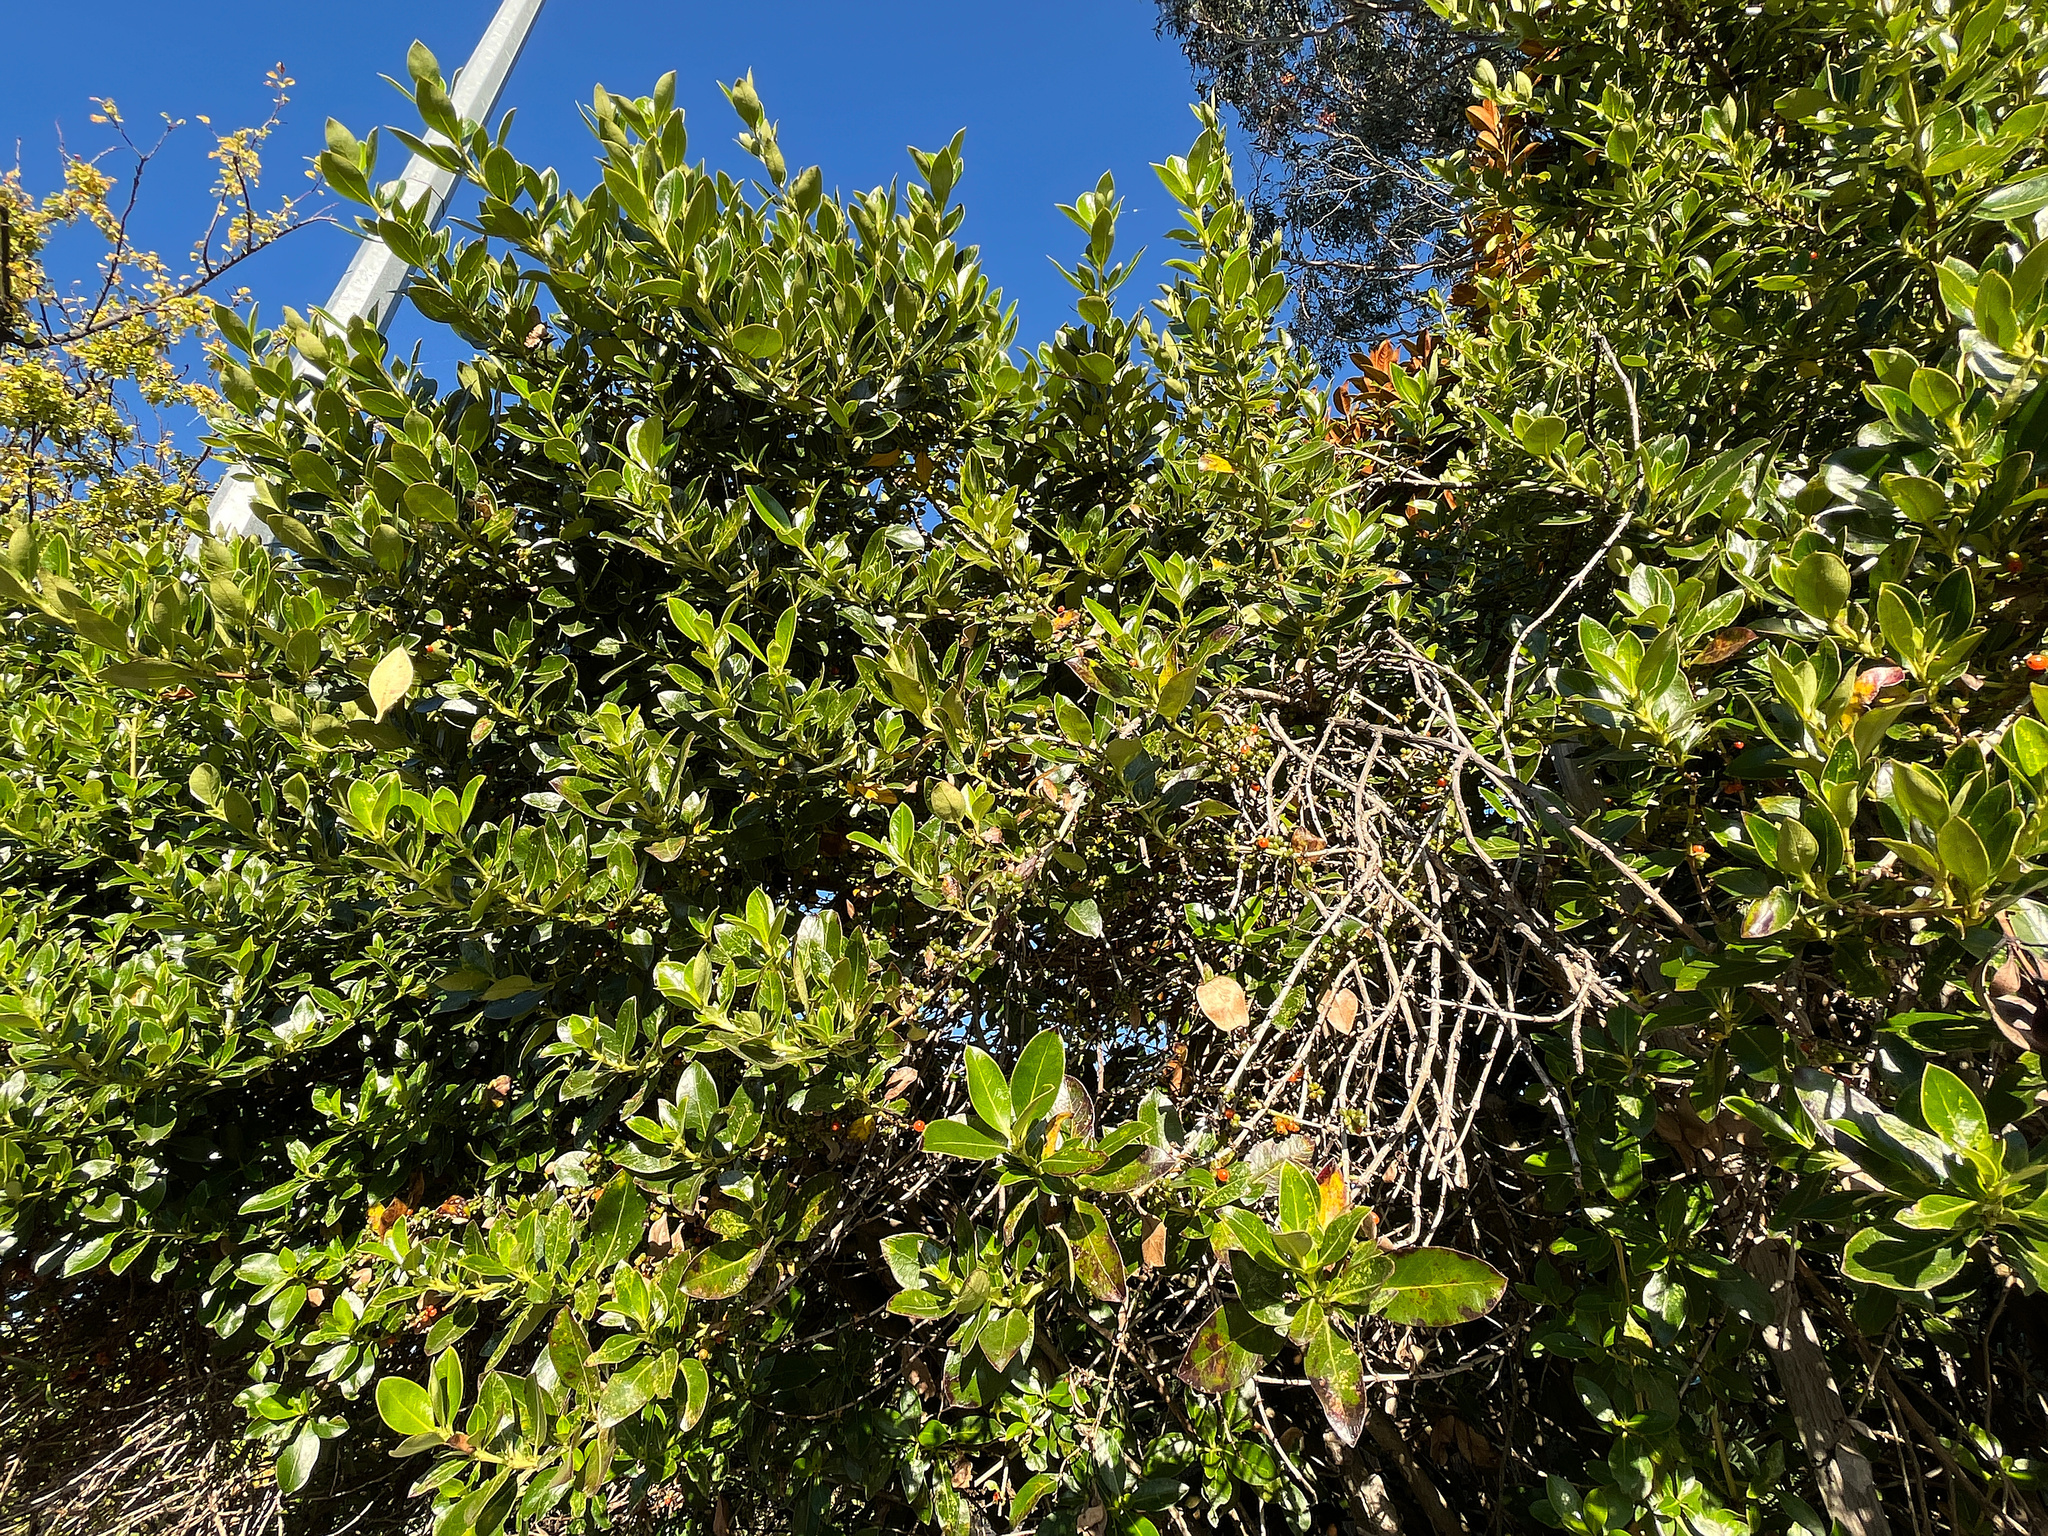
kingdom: Plantae
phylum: Tracheophyta
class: Magnoliopsida
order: Gentianales
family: Rubiaceae
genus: Coprosma
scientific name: Coprosma robusta
